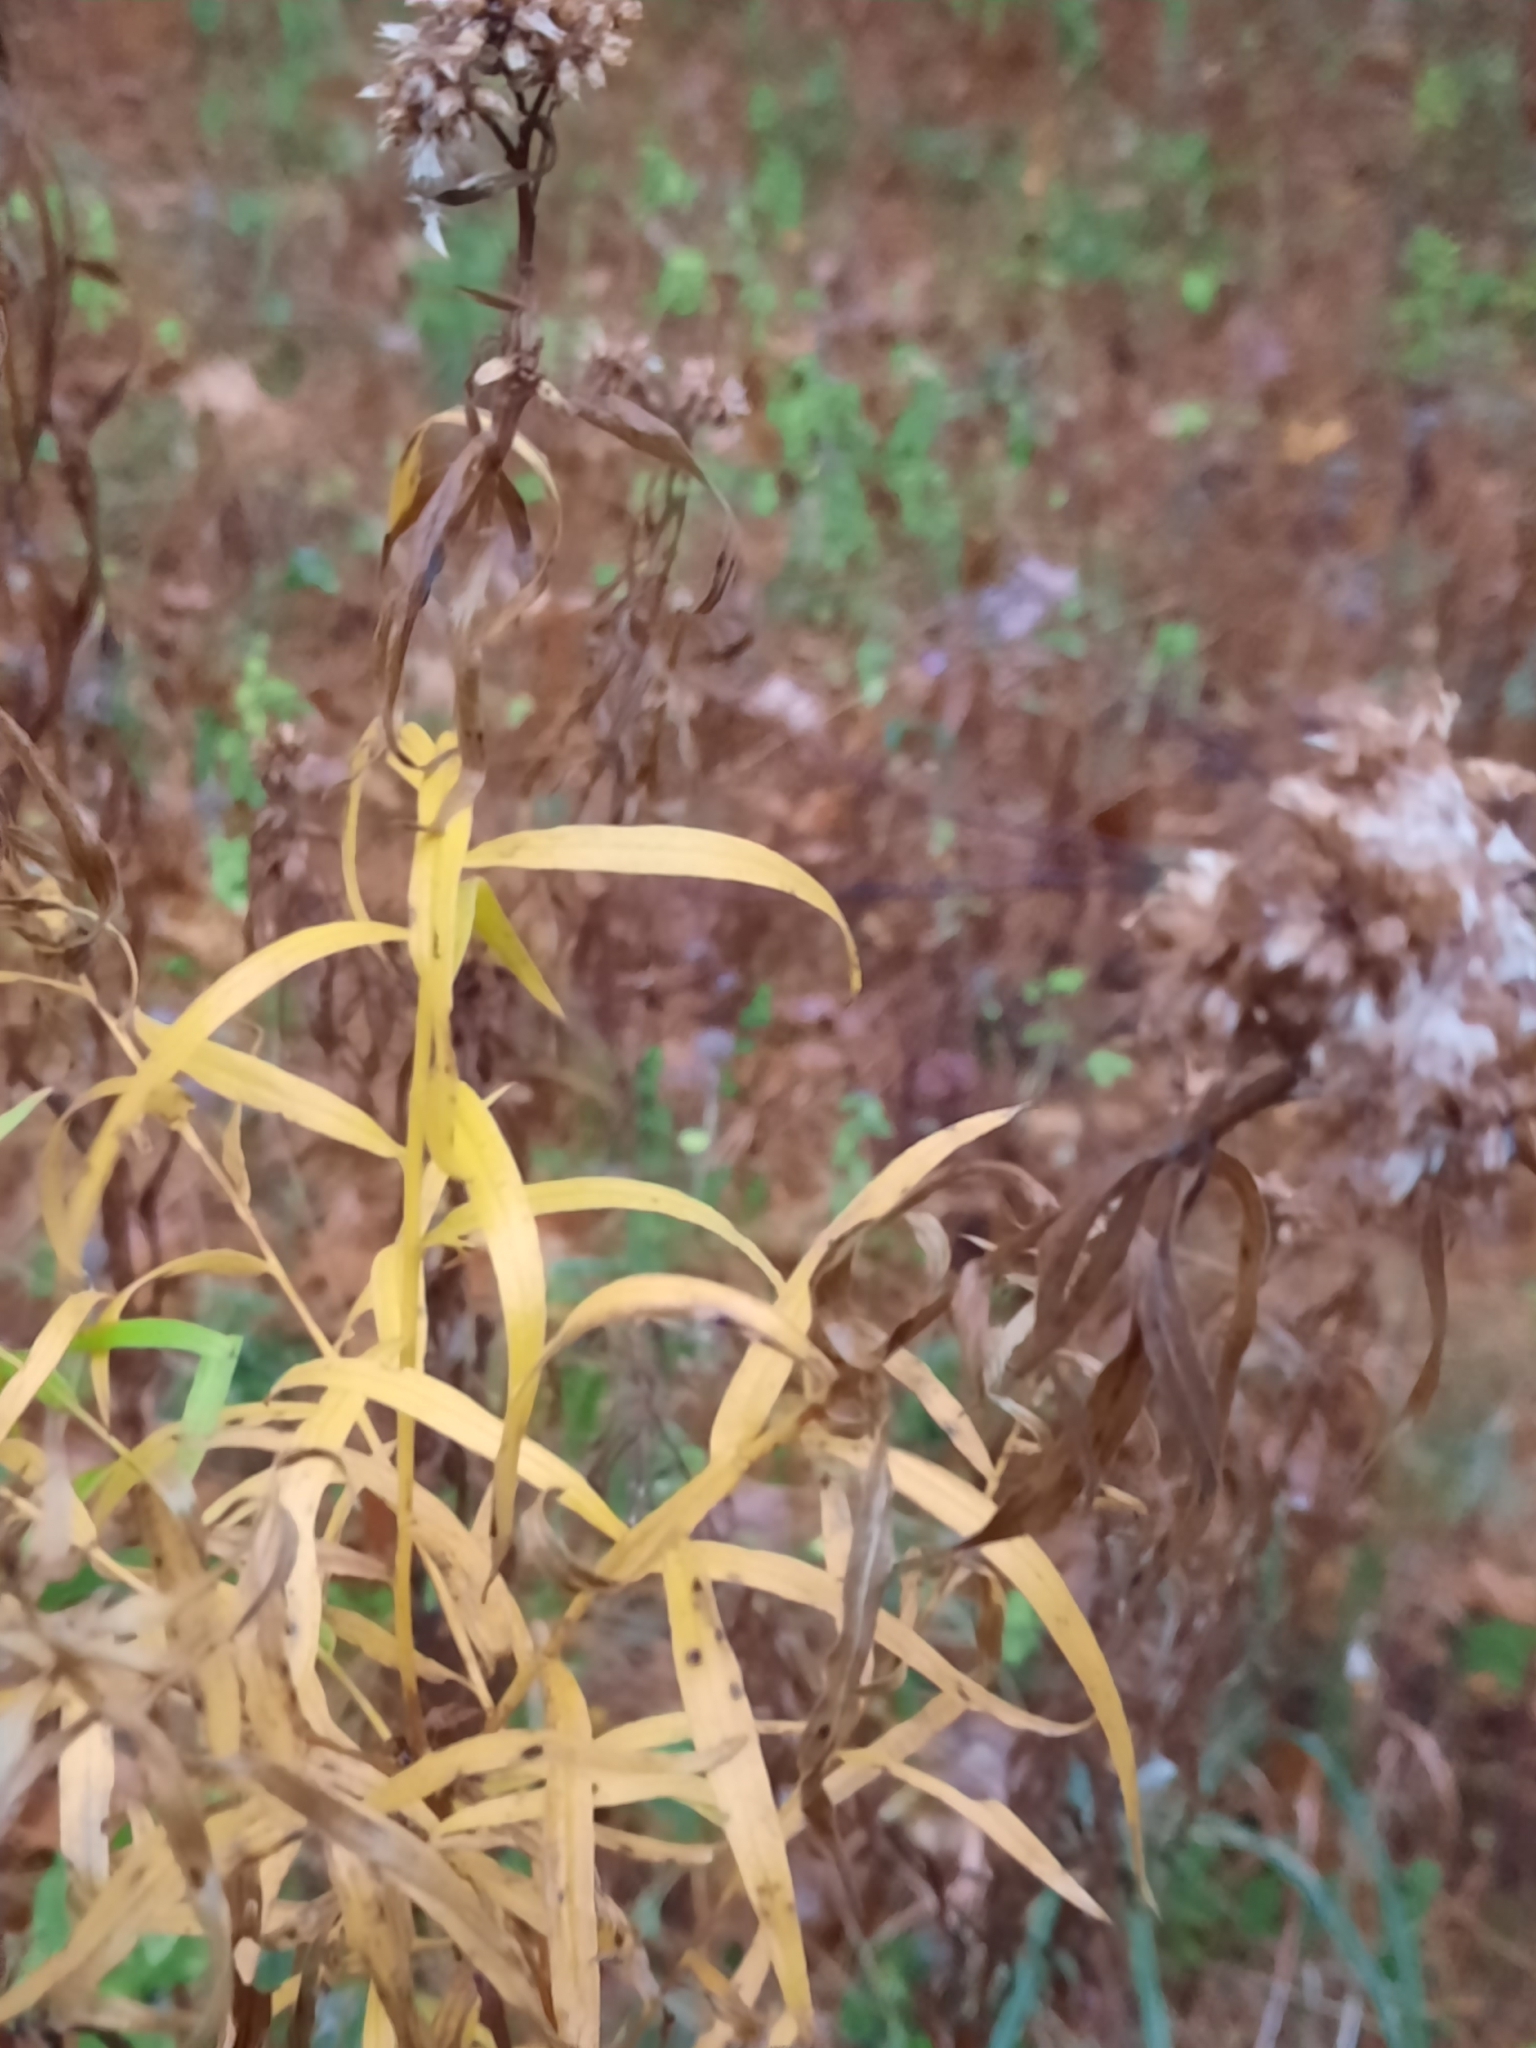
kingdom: Plantae
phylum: Tracheophyta
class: Magnoliopsida
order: Asterales
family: Asteraceae
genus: Euthamia
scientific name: Euthamia graminifolia
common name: Common goldentop
